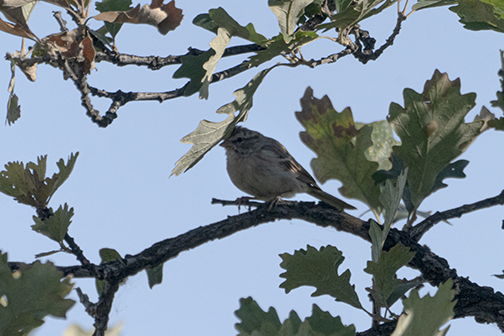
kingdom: Animalia
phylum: Chordata
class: Aves
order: Passeriformes
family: Passerellidae
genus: Spizella
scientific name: Spizella pallida
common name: Clay-colored sparrow
